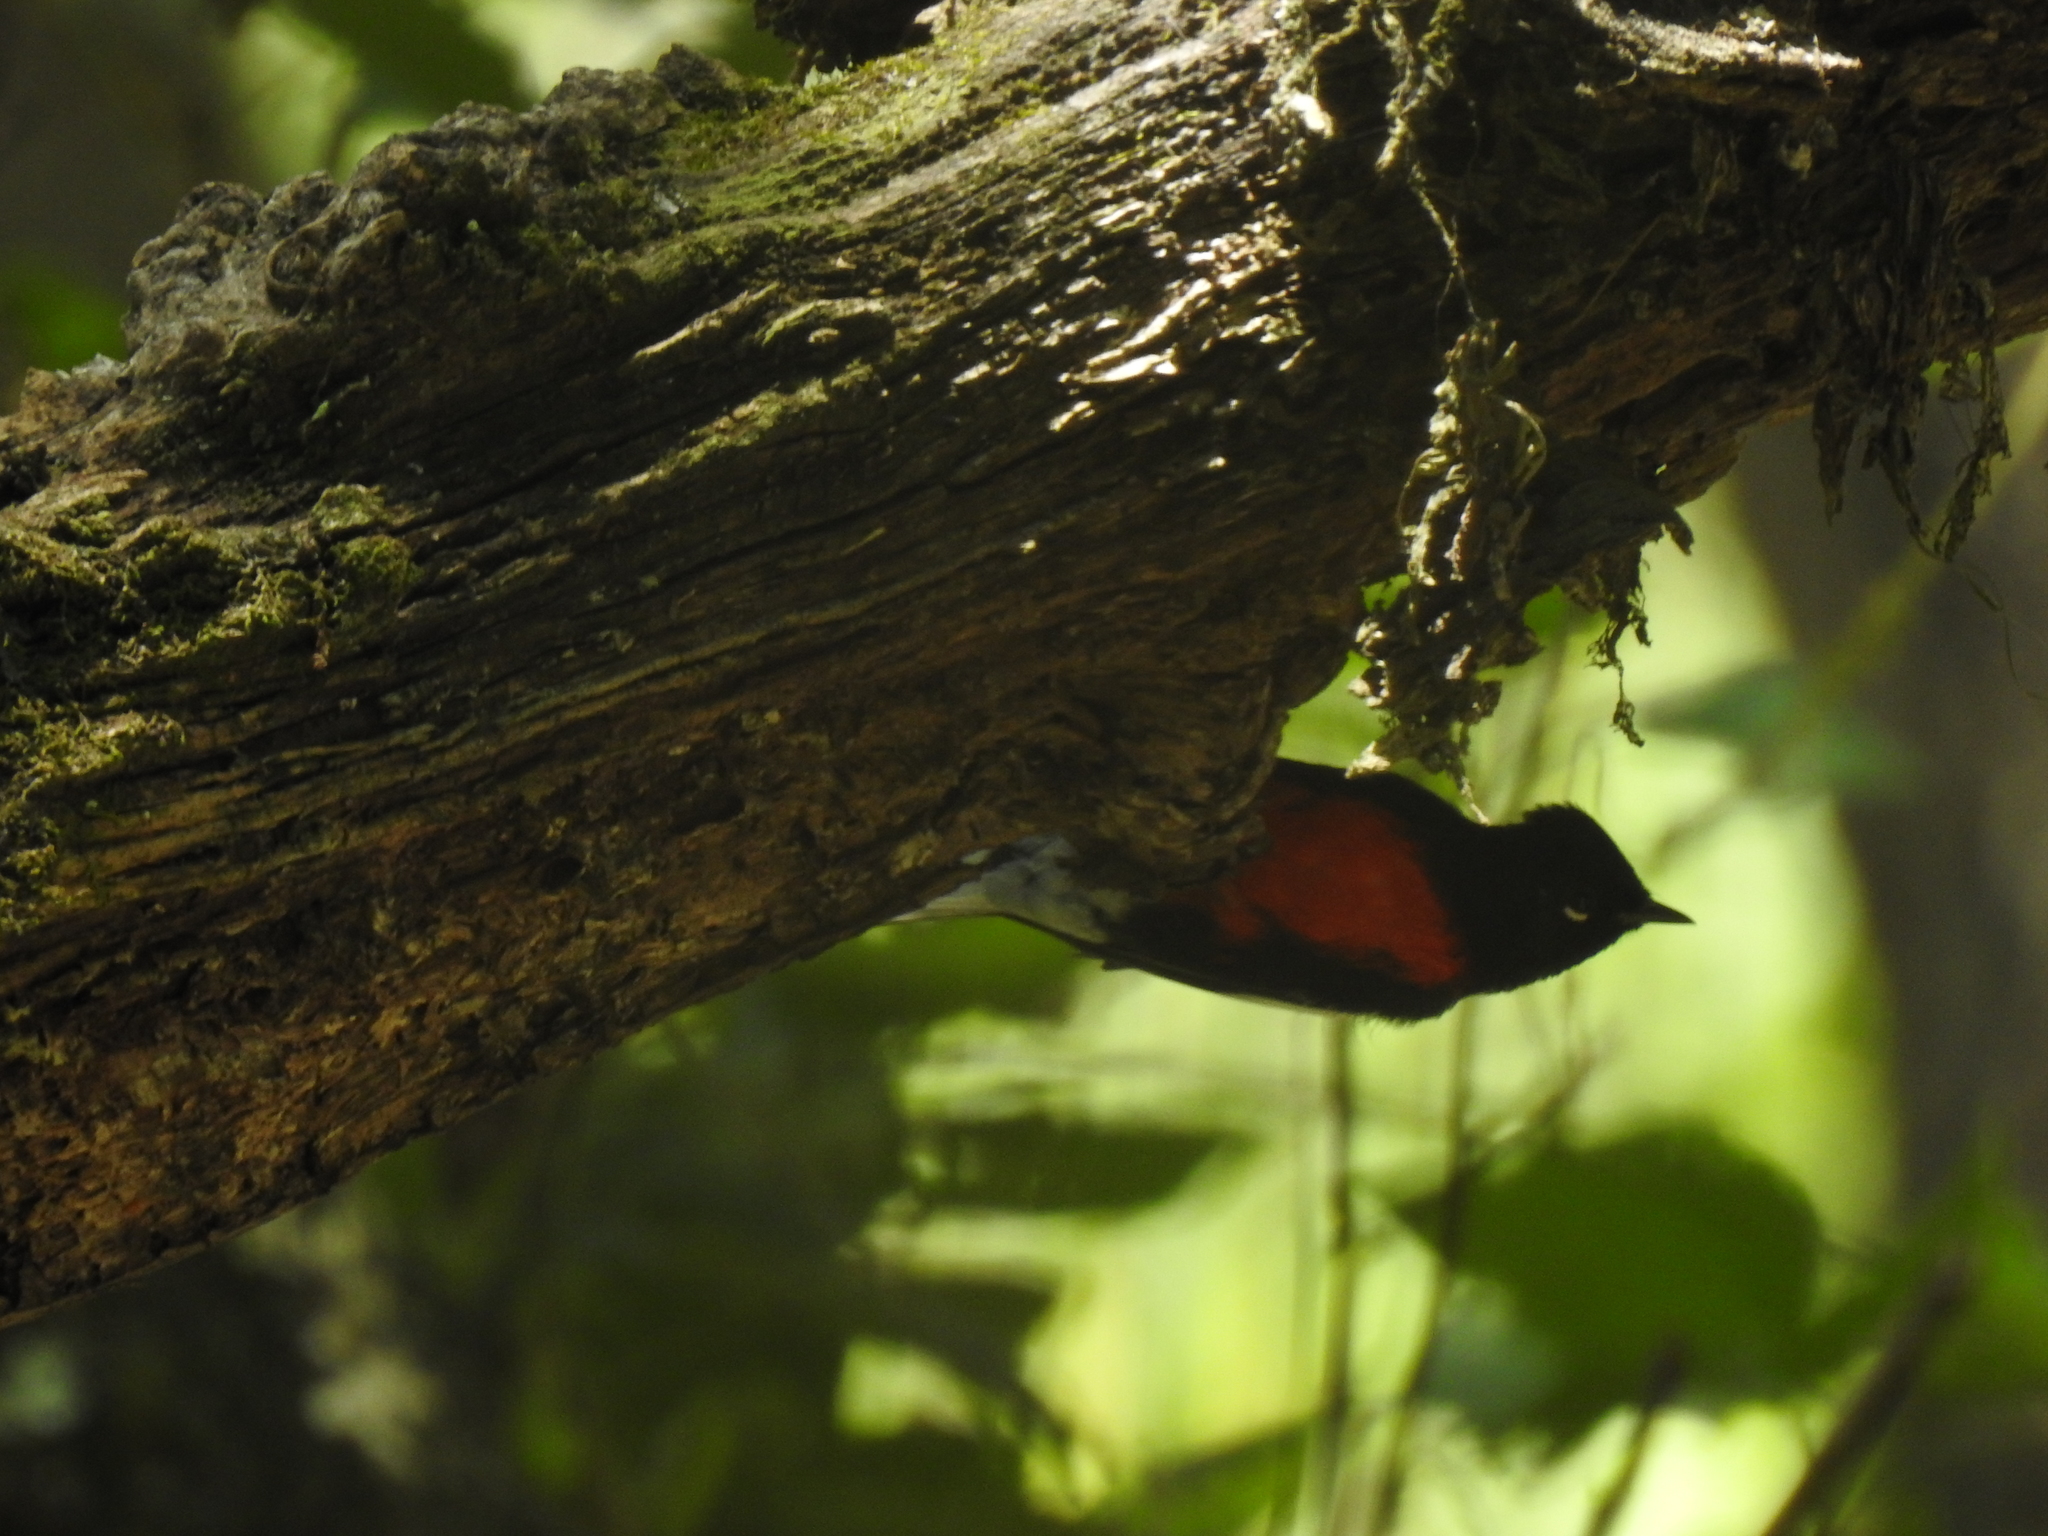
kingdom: Animalia
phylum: Chordata
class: Aves
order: Passeriformes
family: Parulidae
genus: Myioborus
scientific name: Myioborus pictus
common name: Painted whitestart
